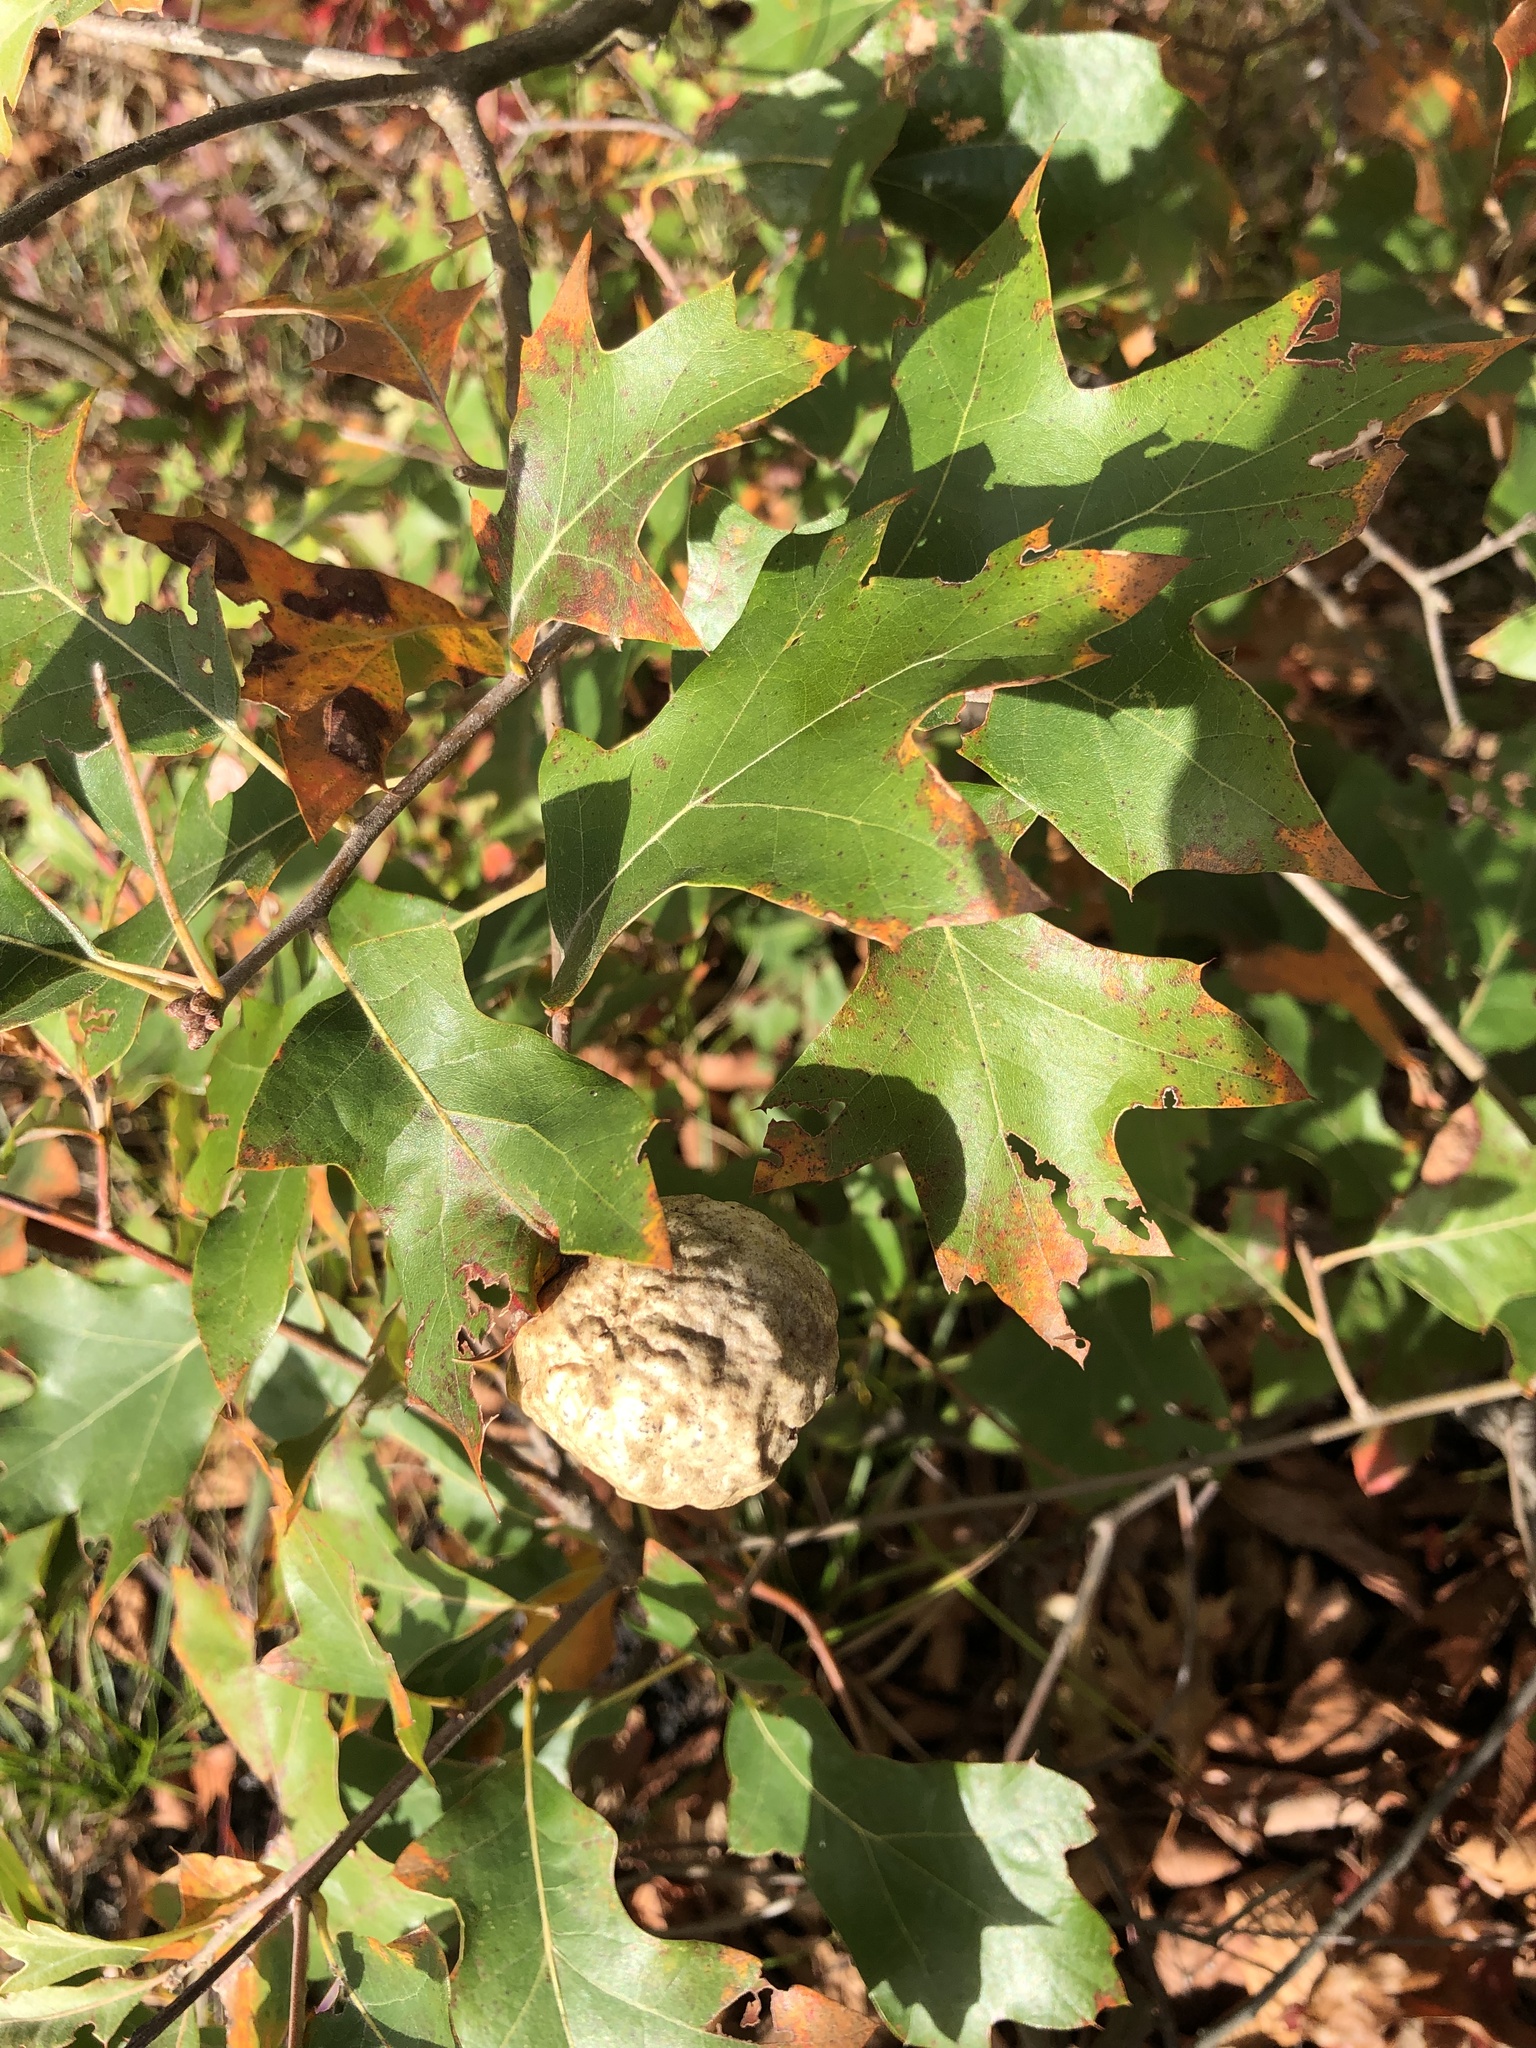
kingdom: Animalia
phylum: Arthropoda
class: Insecta
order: Hymenoptera
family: Cynipidae
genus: Amphibolips
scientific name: Amphibolips
